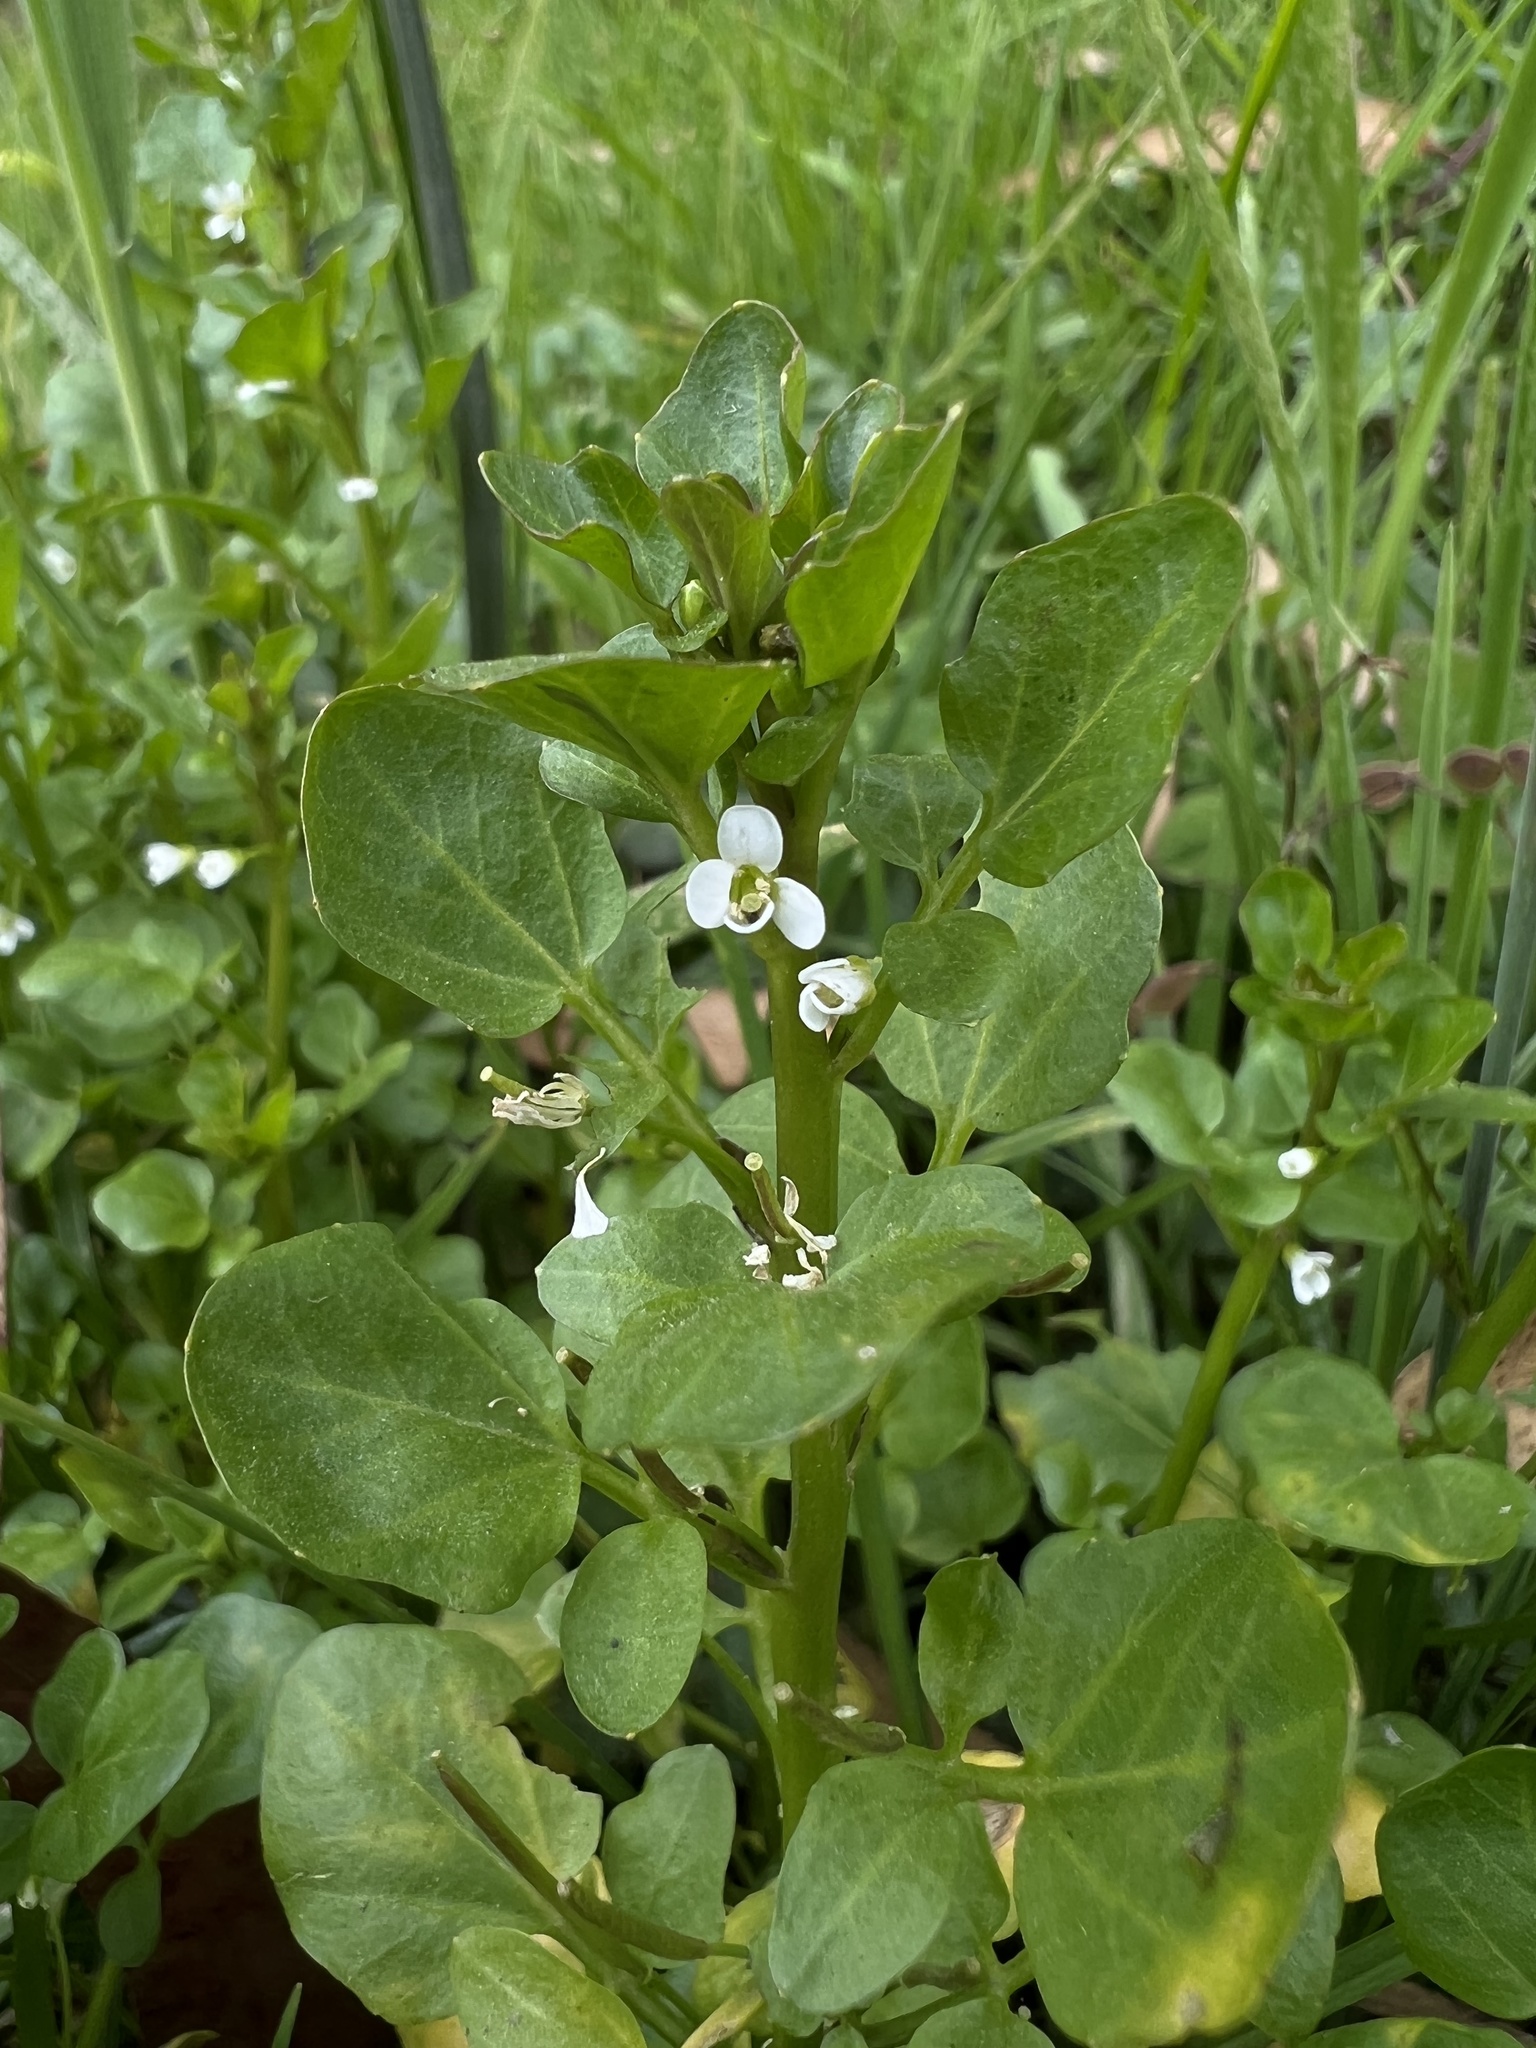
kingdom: Plantae
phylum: Tracheophyta
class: Magnoliopsida
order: Brassicales
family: Brassicaceae
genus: Nasturtium
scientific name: Nasturtium officinale
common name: Watercress
